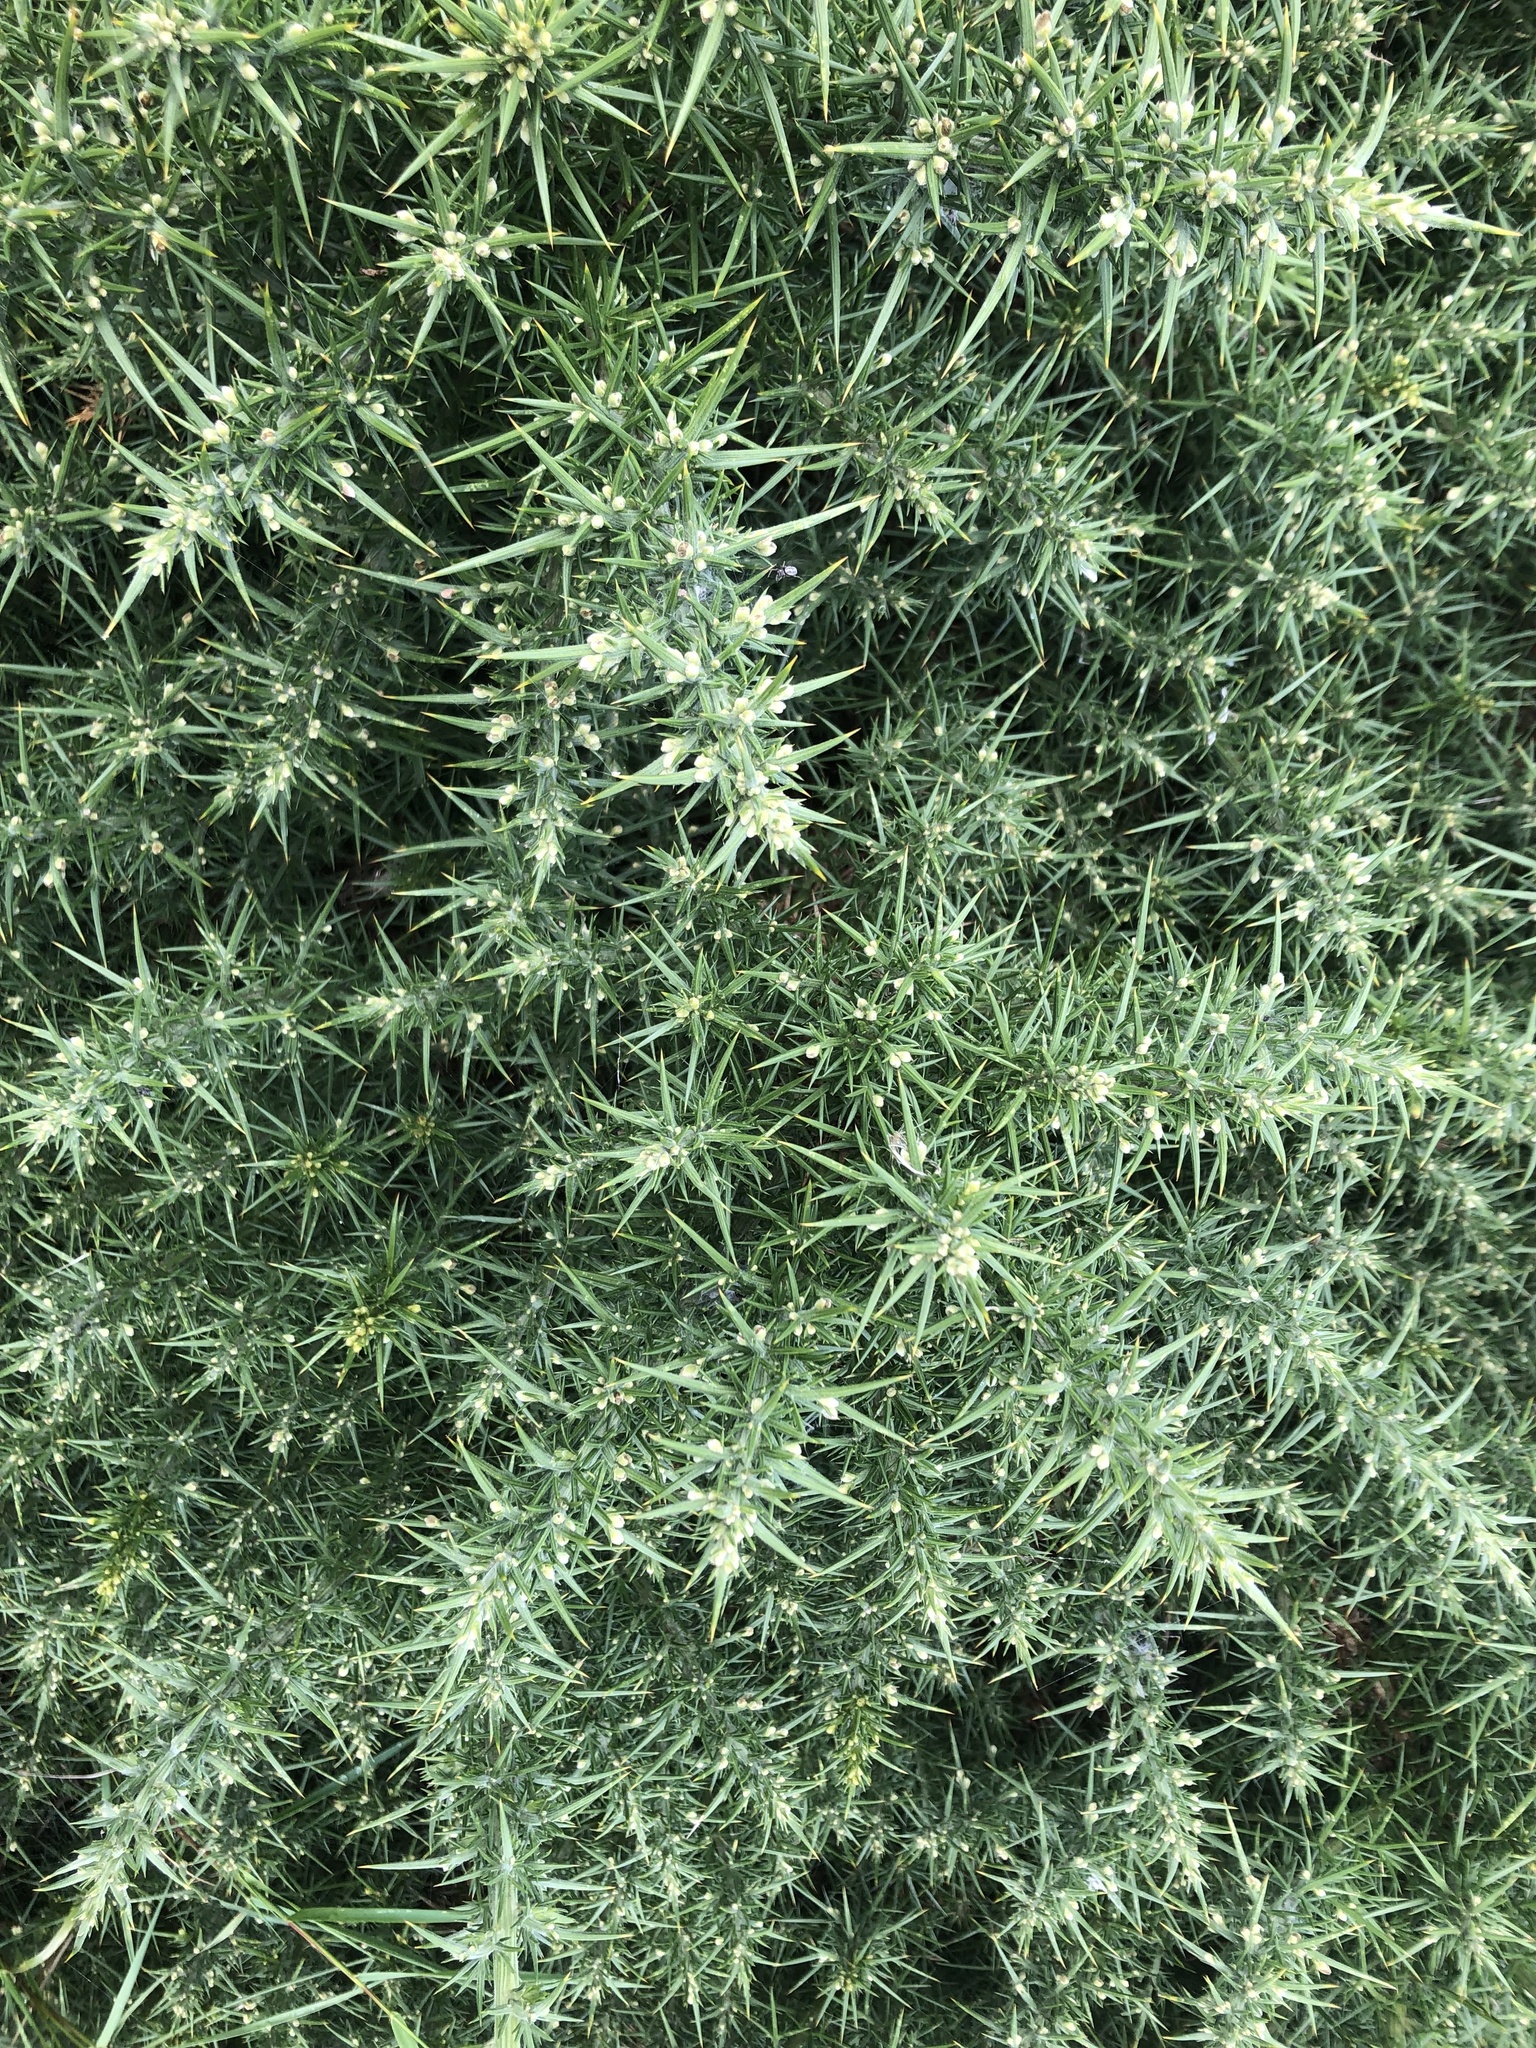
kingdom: Plantae
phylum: Tracheophyta
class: Magnoliopsida
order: Fabales
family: Fabaceae
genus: Ulex
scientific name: Ulex europaeus
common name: Common gorse
